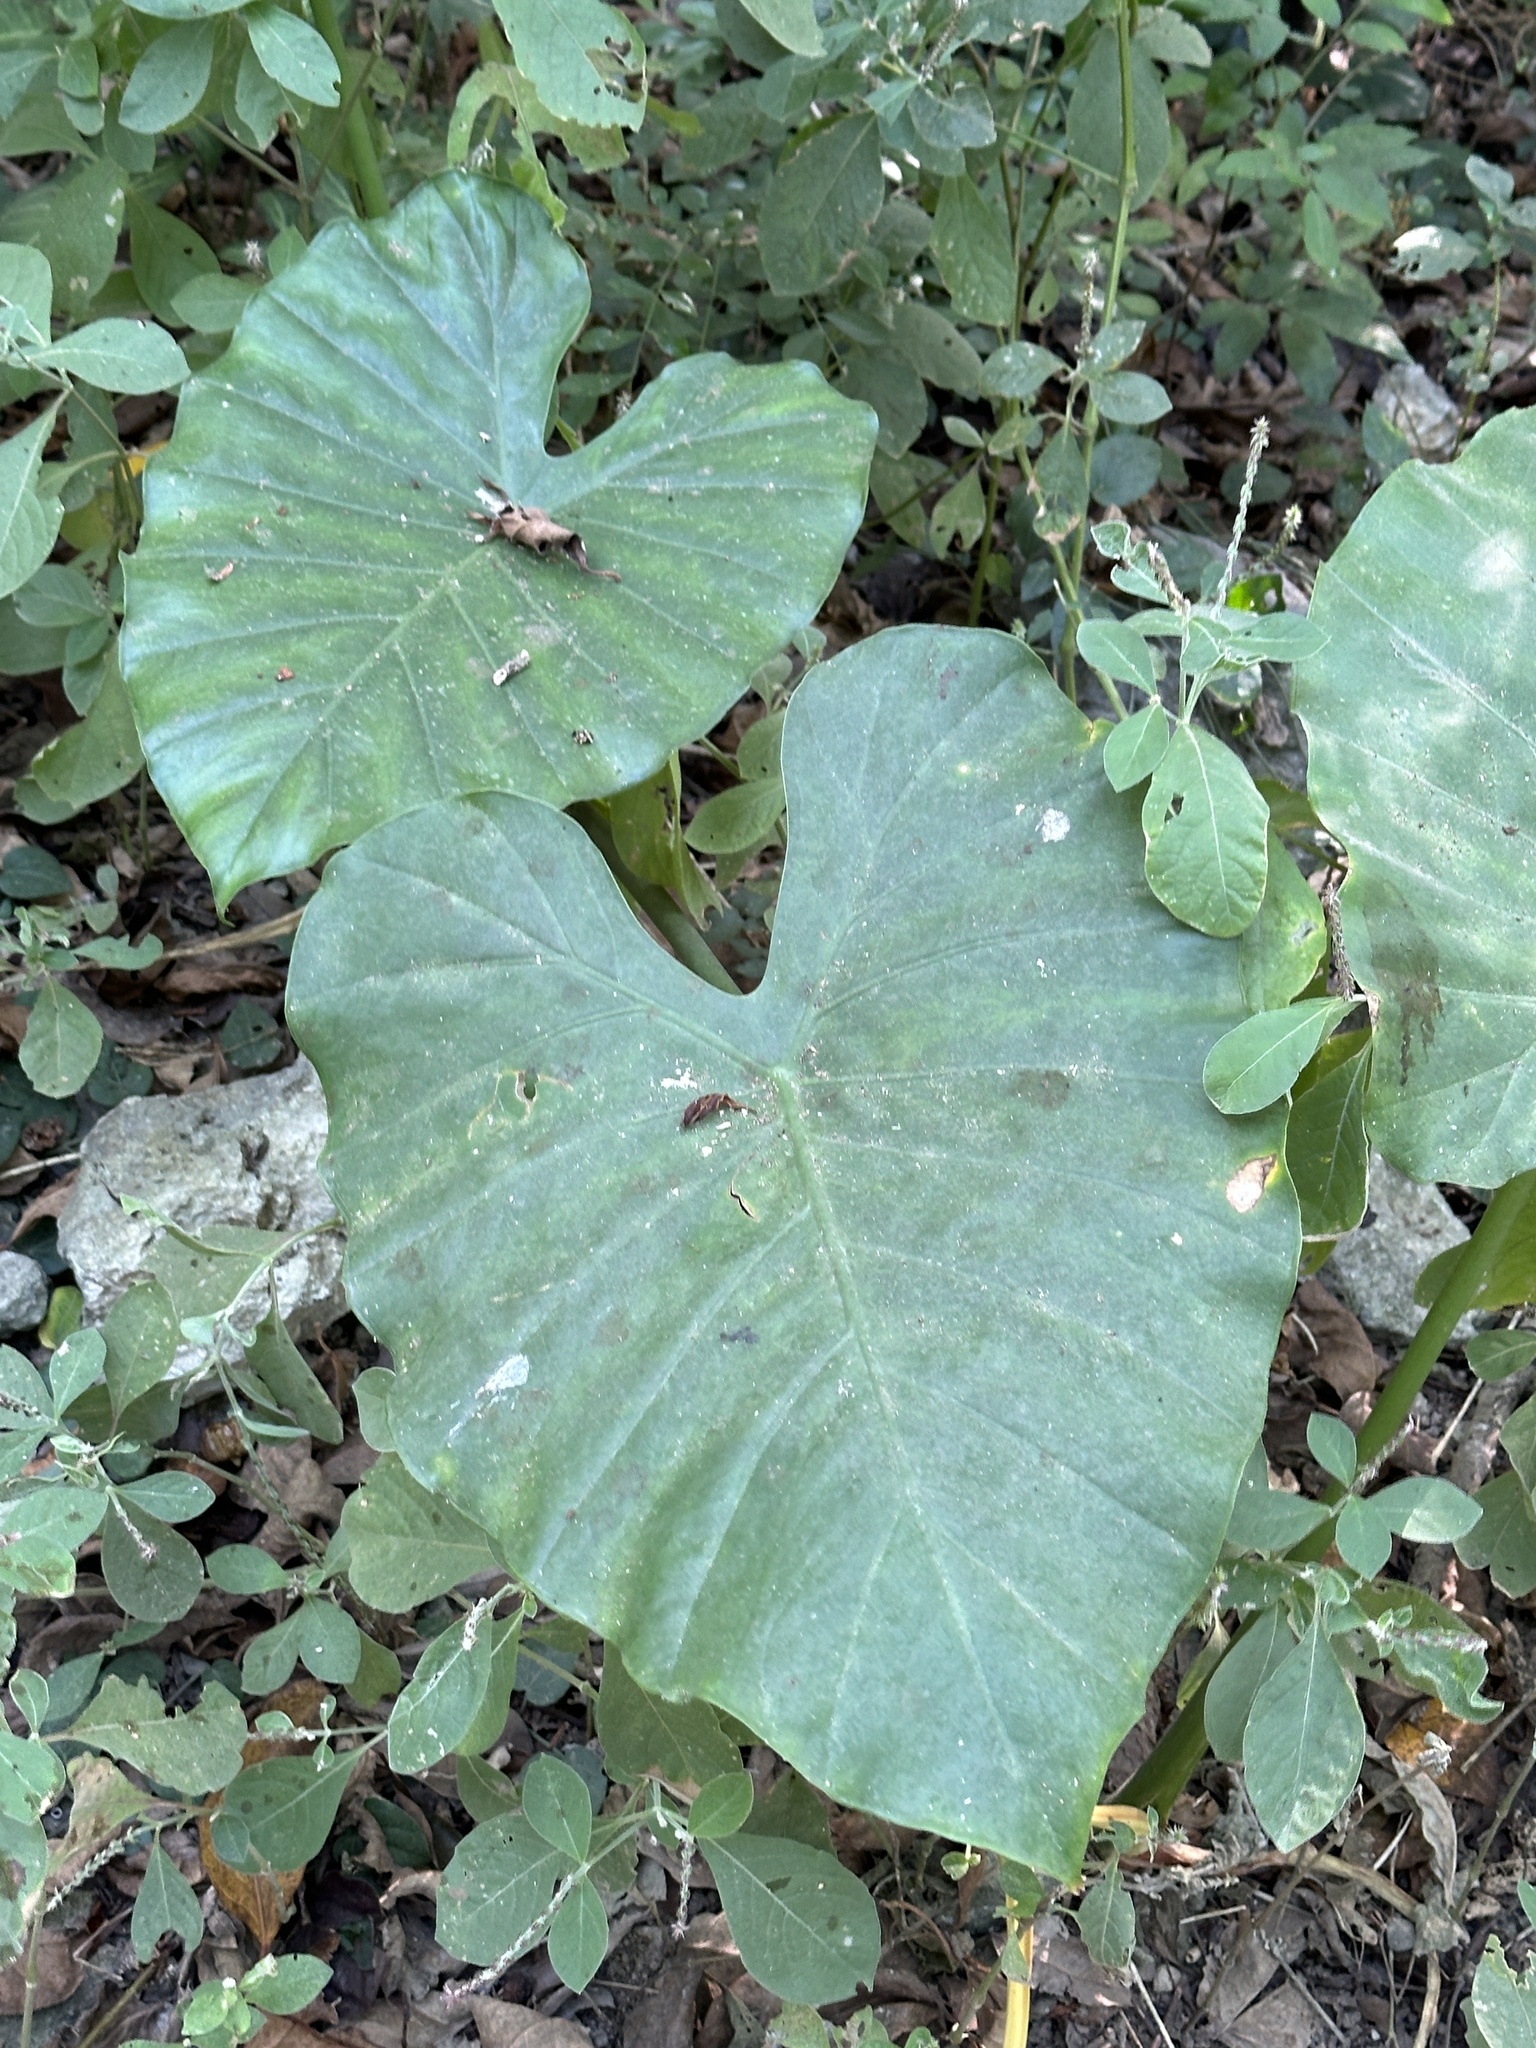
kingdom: Plantae
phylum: Tracheophyta
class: Liliopsida
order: Alismatales
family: Araceae
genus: Alocasia
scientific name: Alocasia odora
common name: Asian taro
